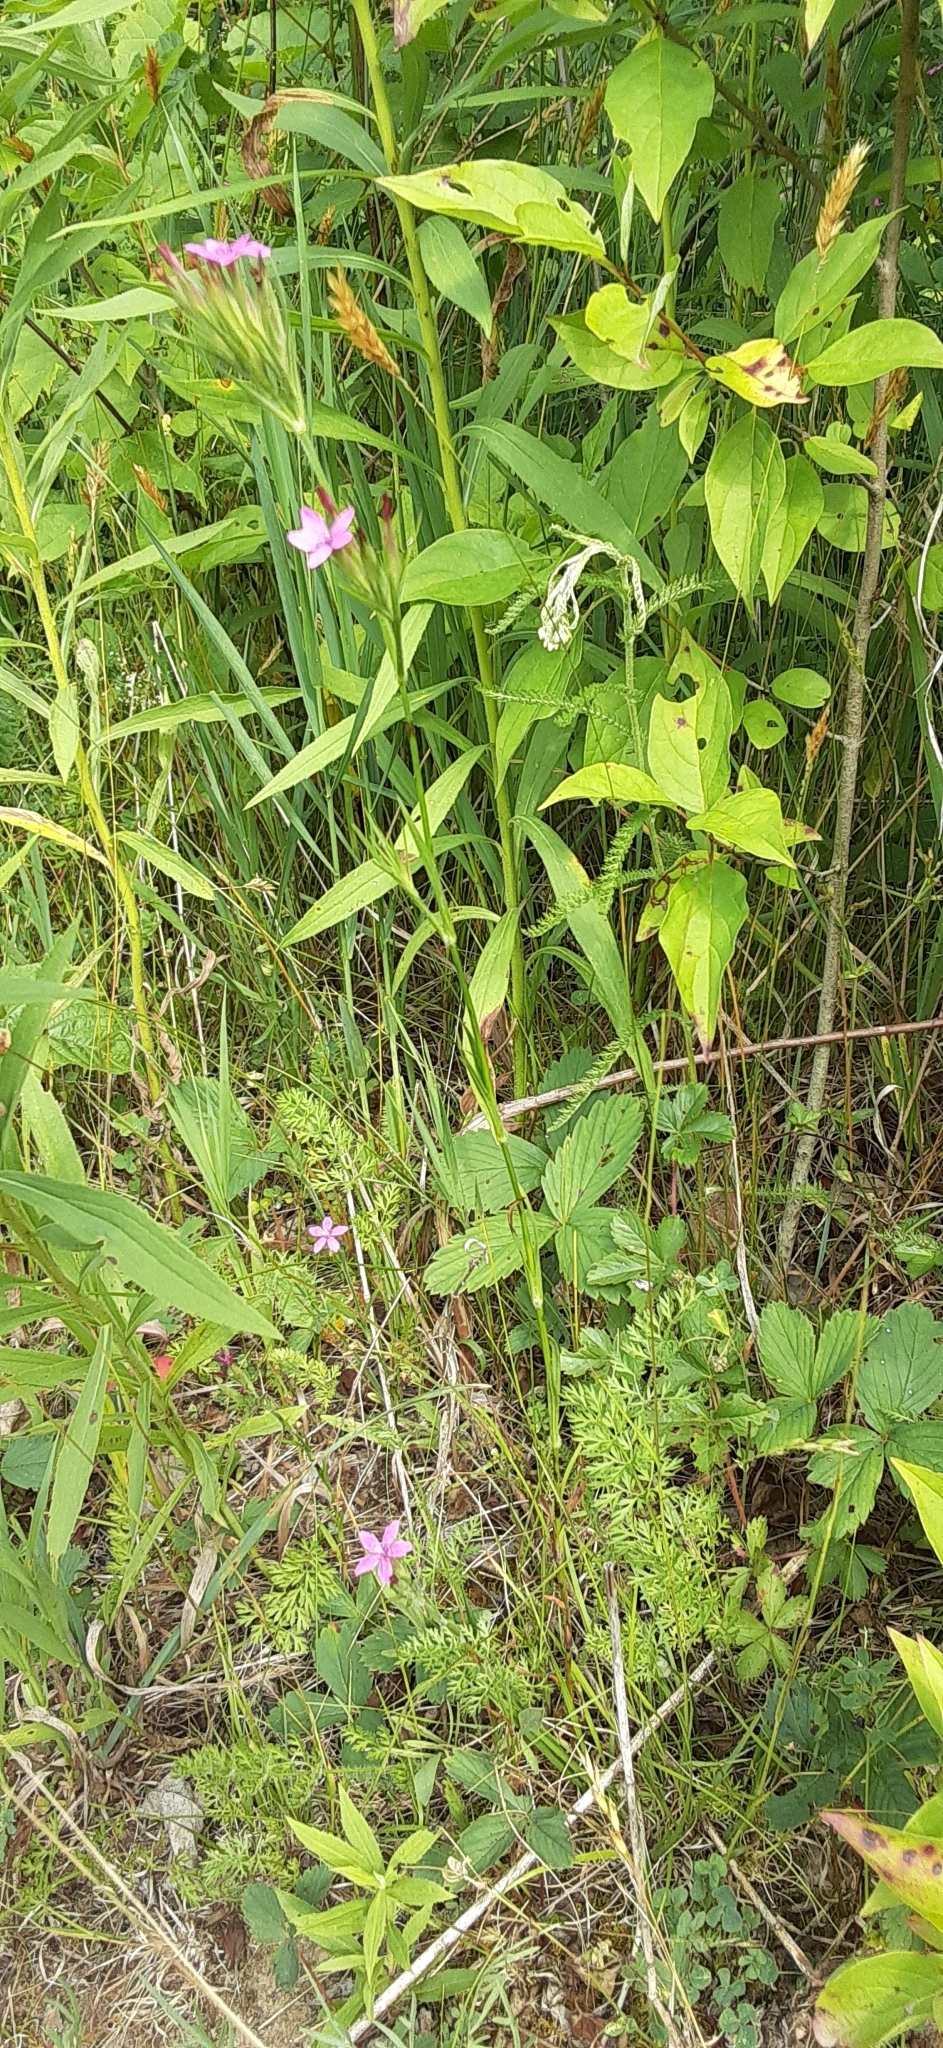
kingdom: Plantae
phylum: Tracheophyta
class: Magnoliopsida
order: Caryophyllales
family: Caryophyllaceae
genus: Dianthus
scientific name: Dianthus armeria
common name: Deptford pink
